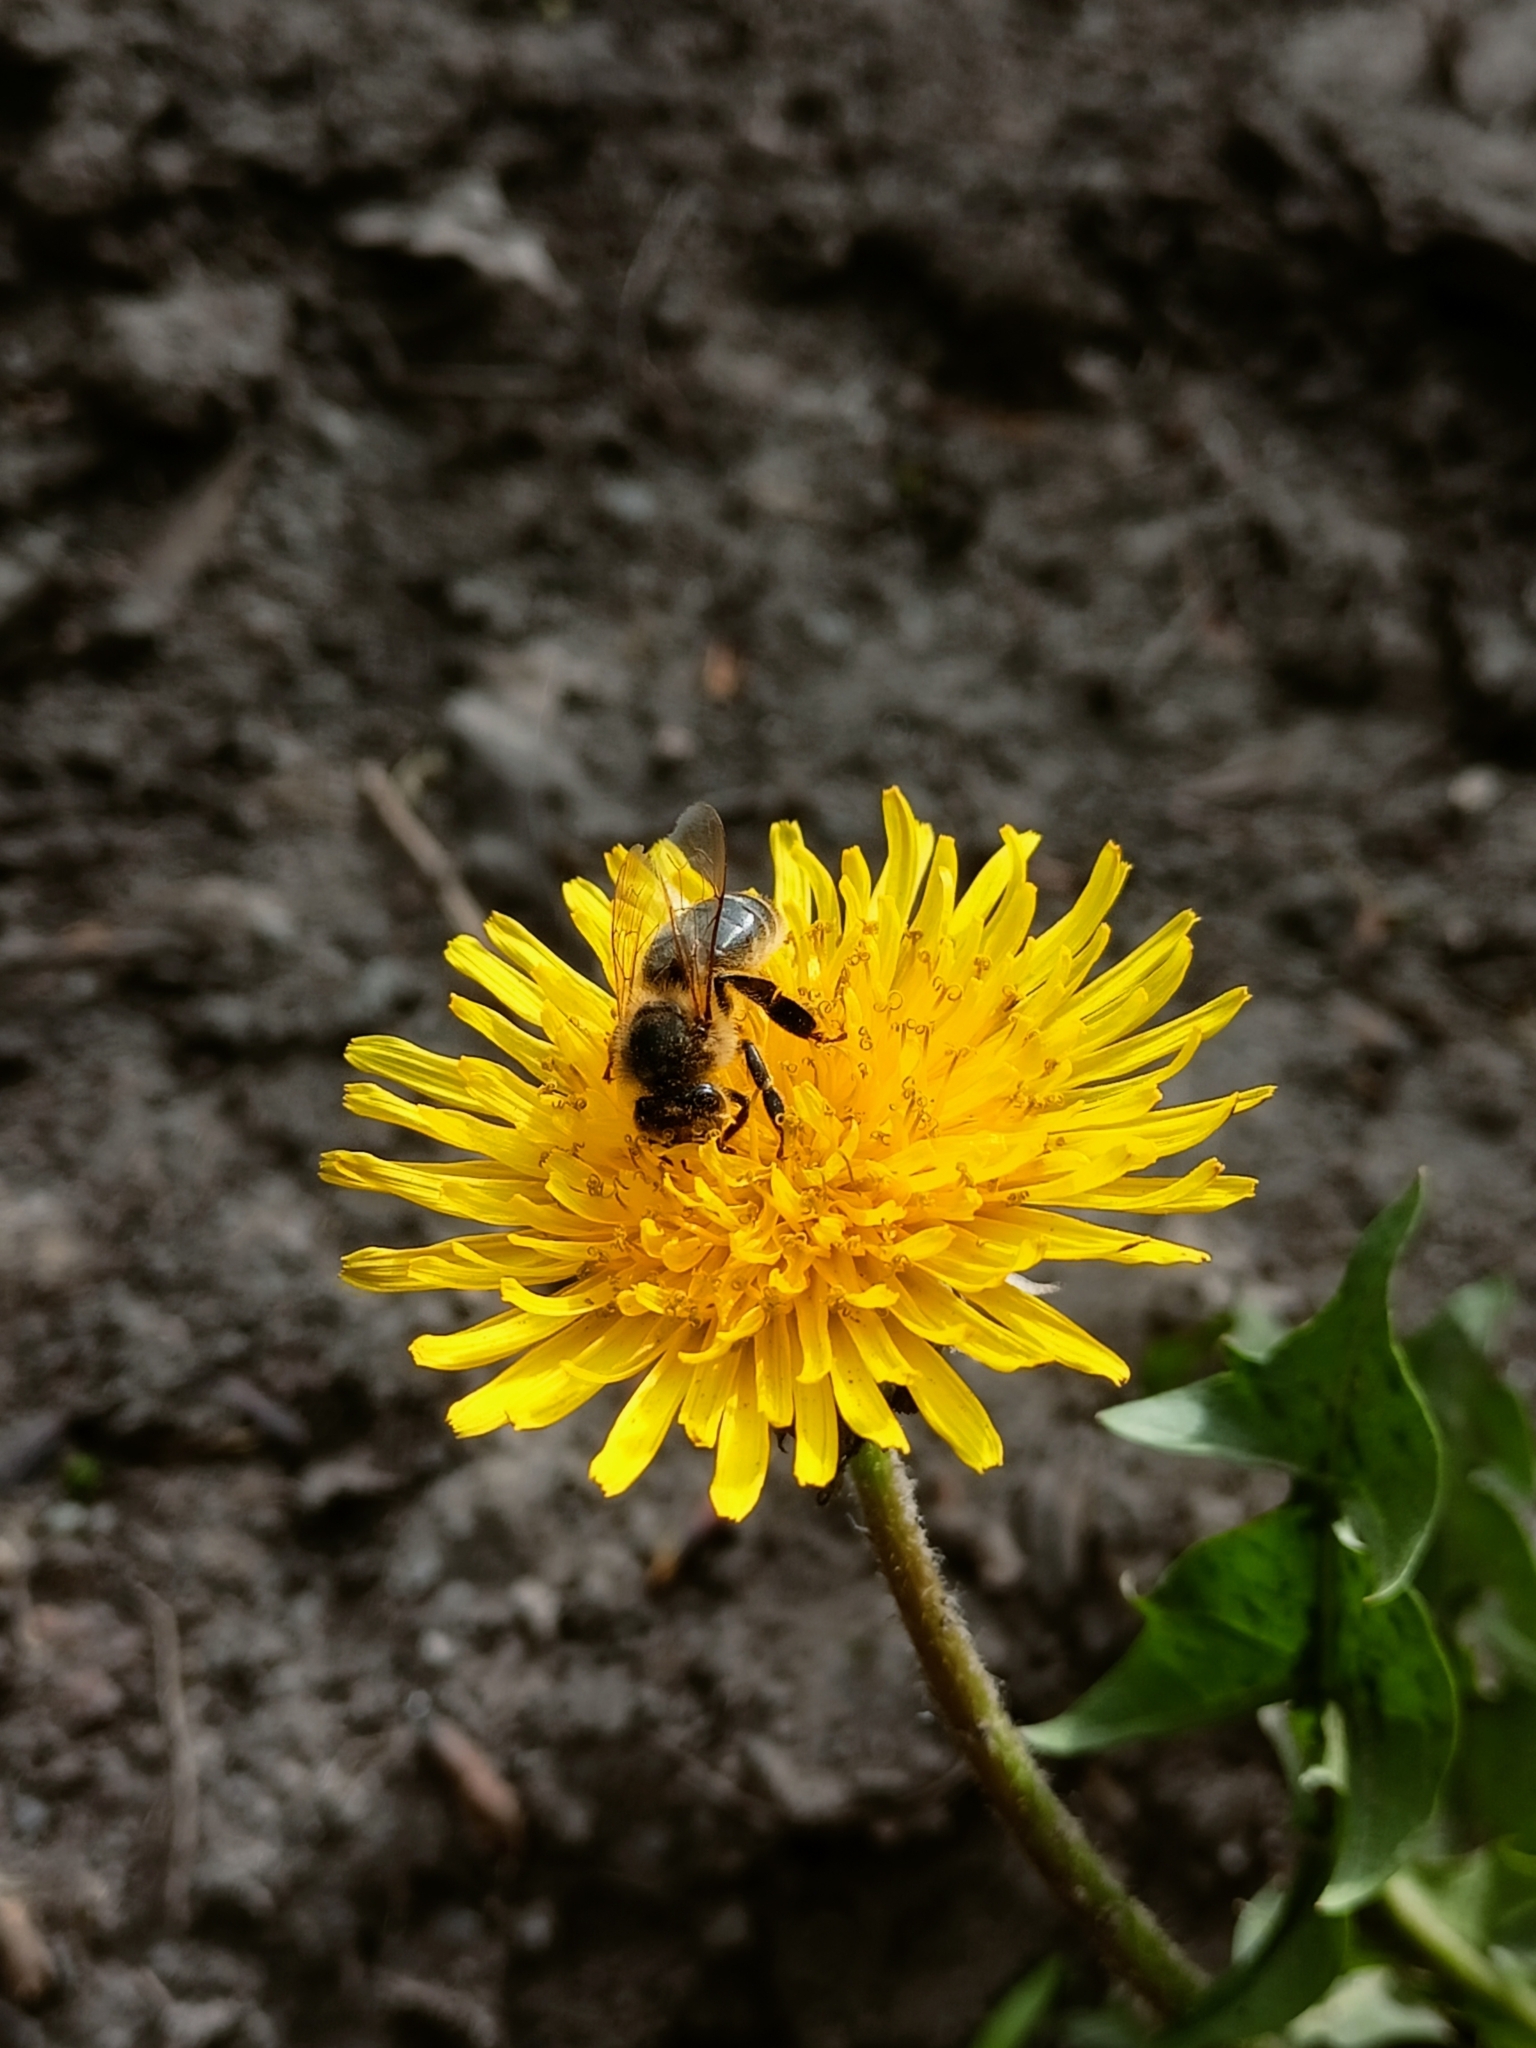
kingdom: Animalia
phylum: Arthropoda
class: Insecta
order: Hymenoptera
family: Apidae
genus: Apis
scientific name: Apis mellifera
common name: Honey bee
